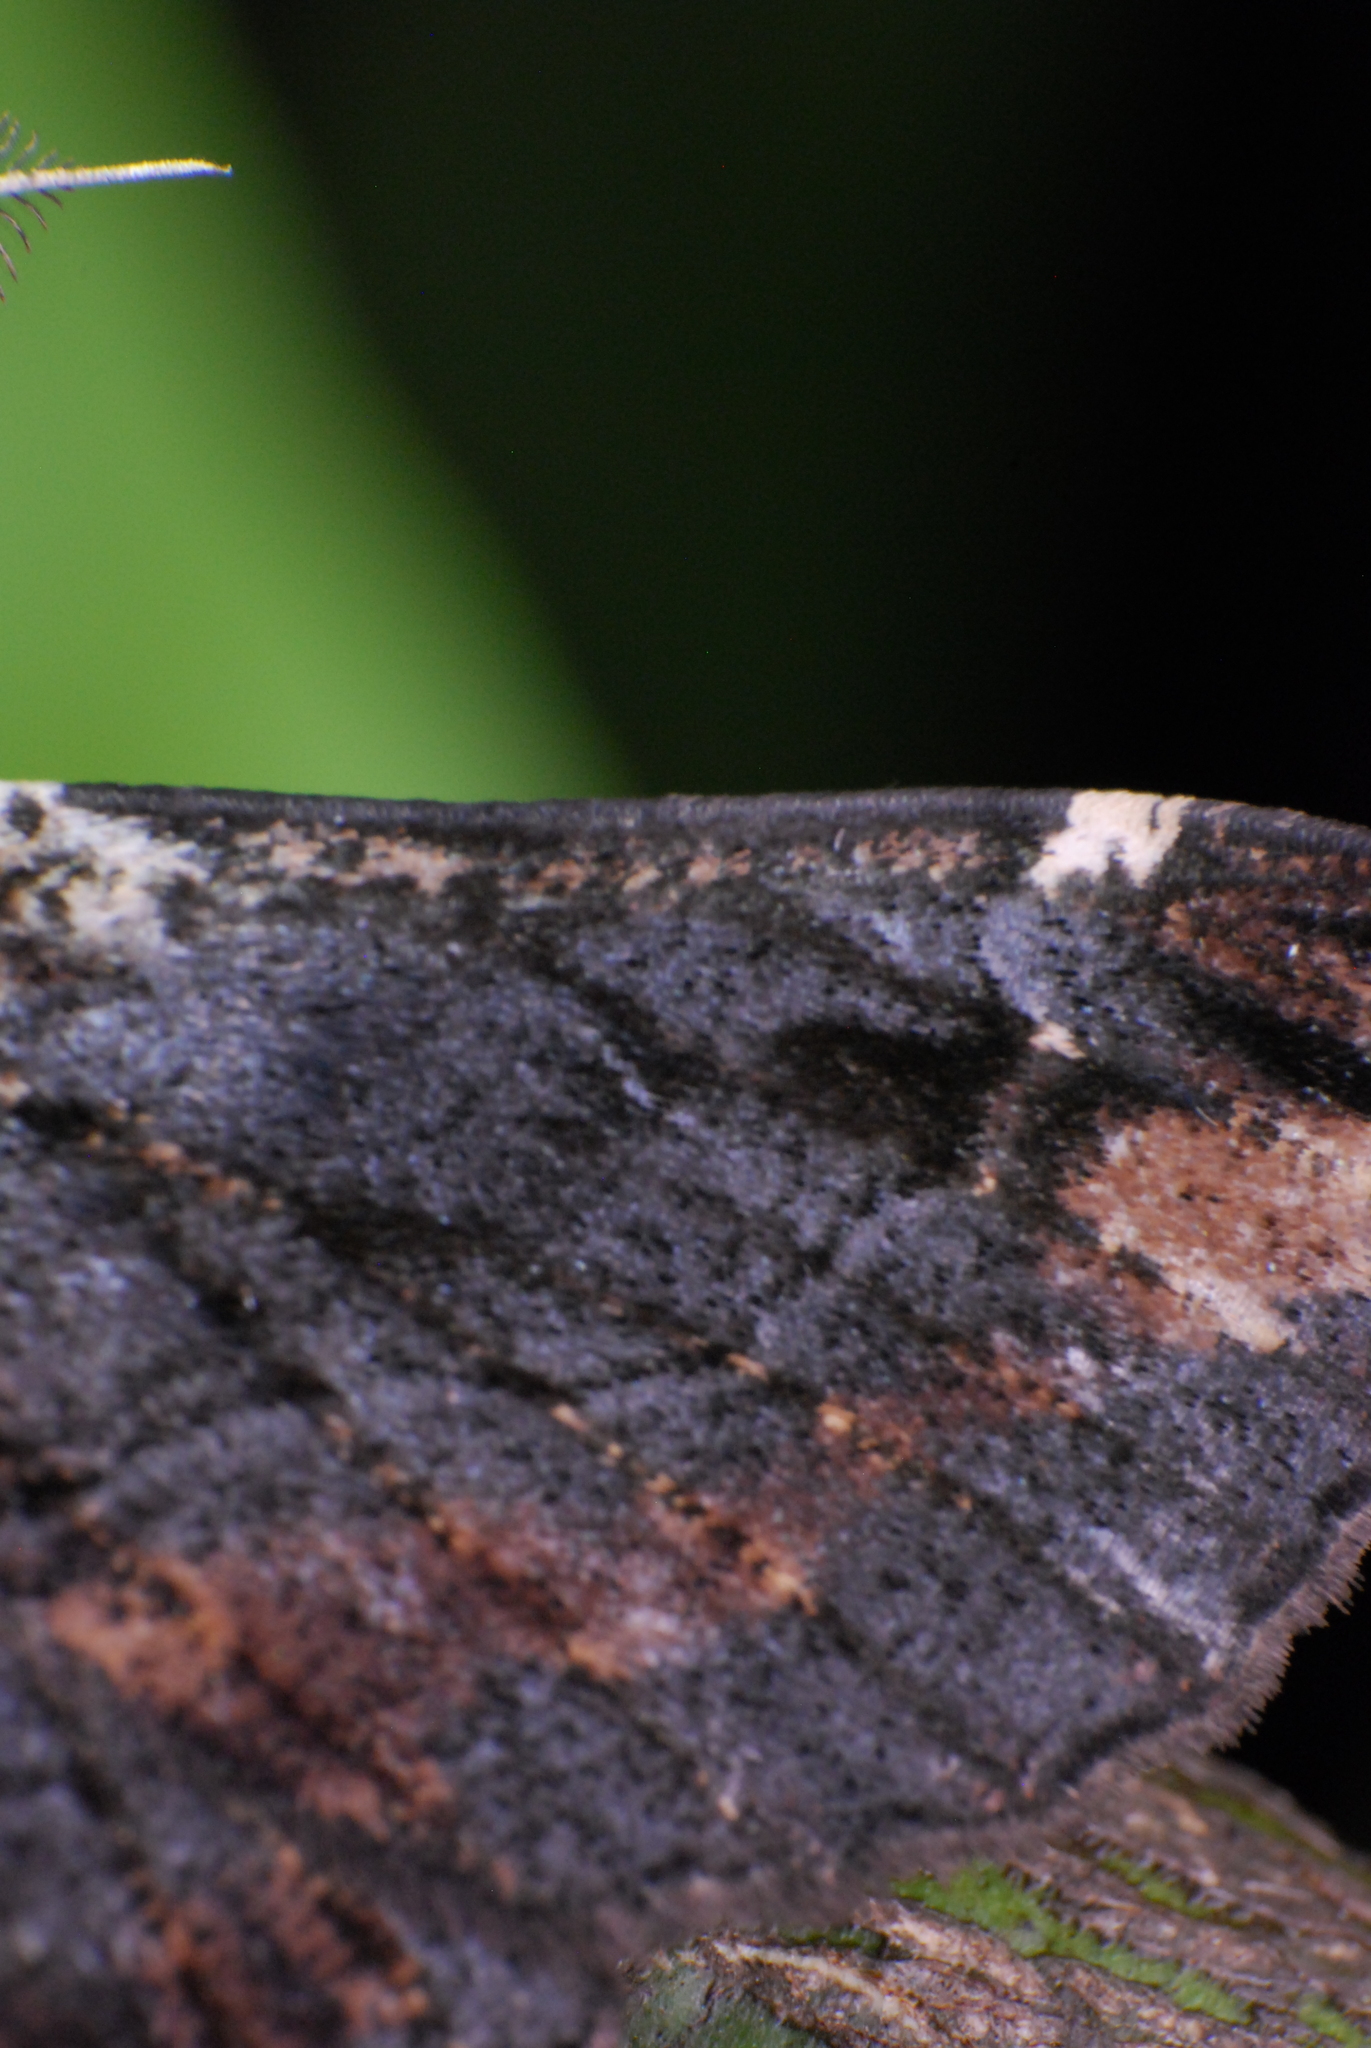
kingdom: Animalia
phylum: Arthropoda
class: Insecta
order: Lepidoptera
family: Geometridae
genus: Pholodes
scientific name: Pholodes sinistraria
